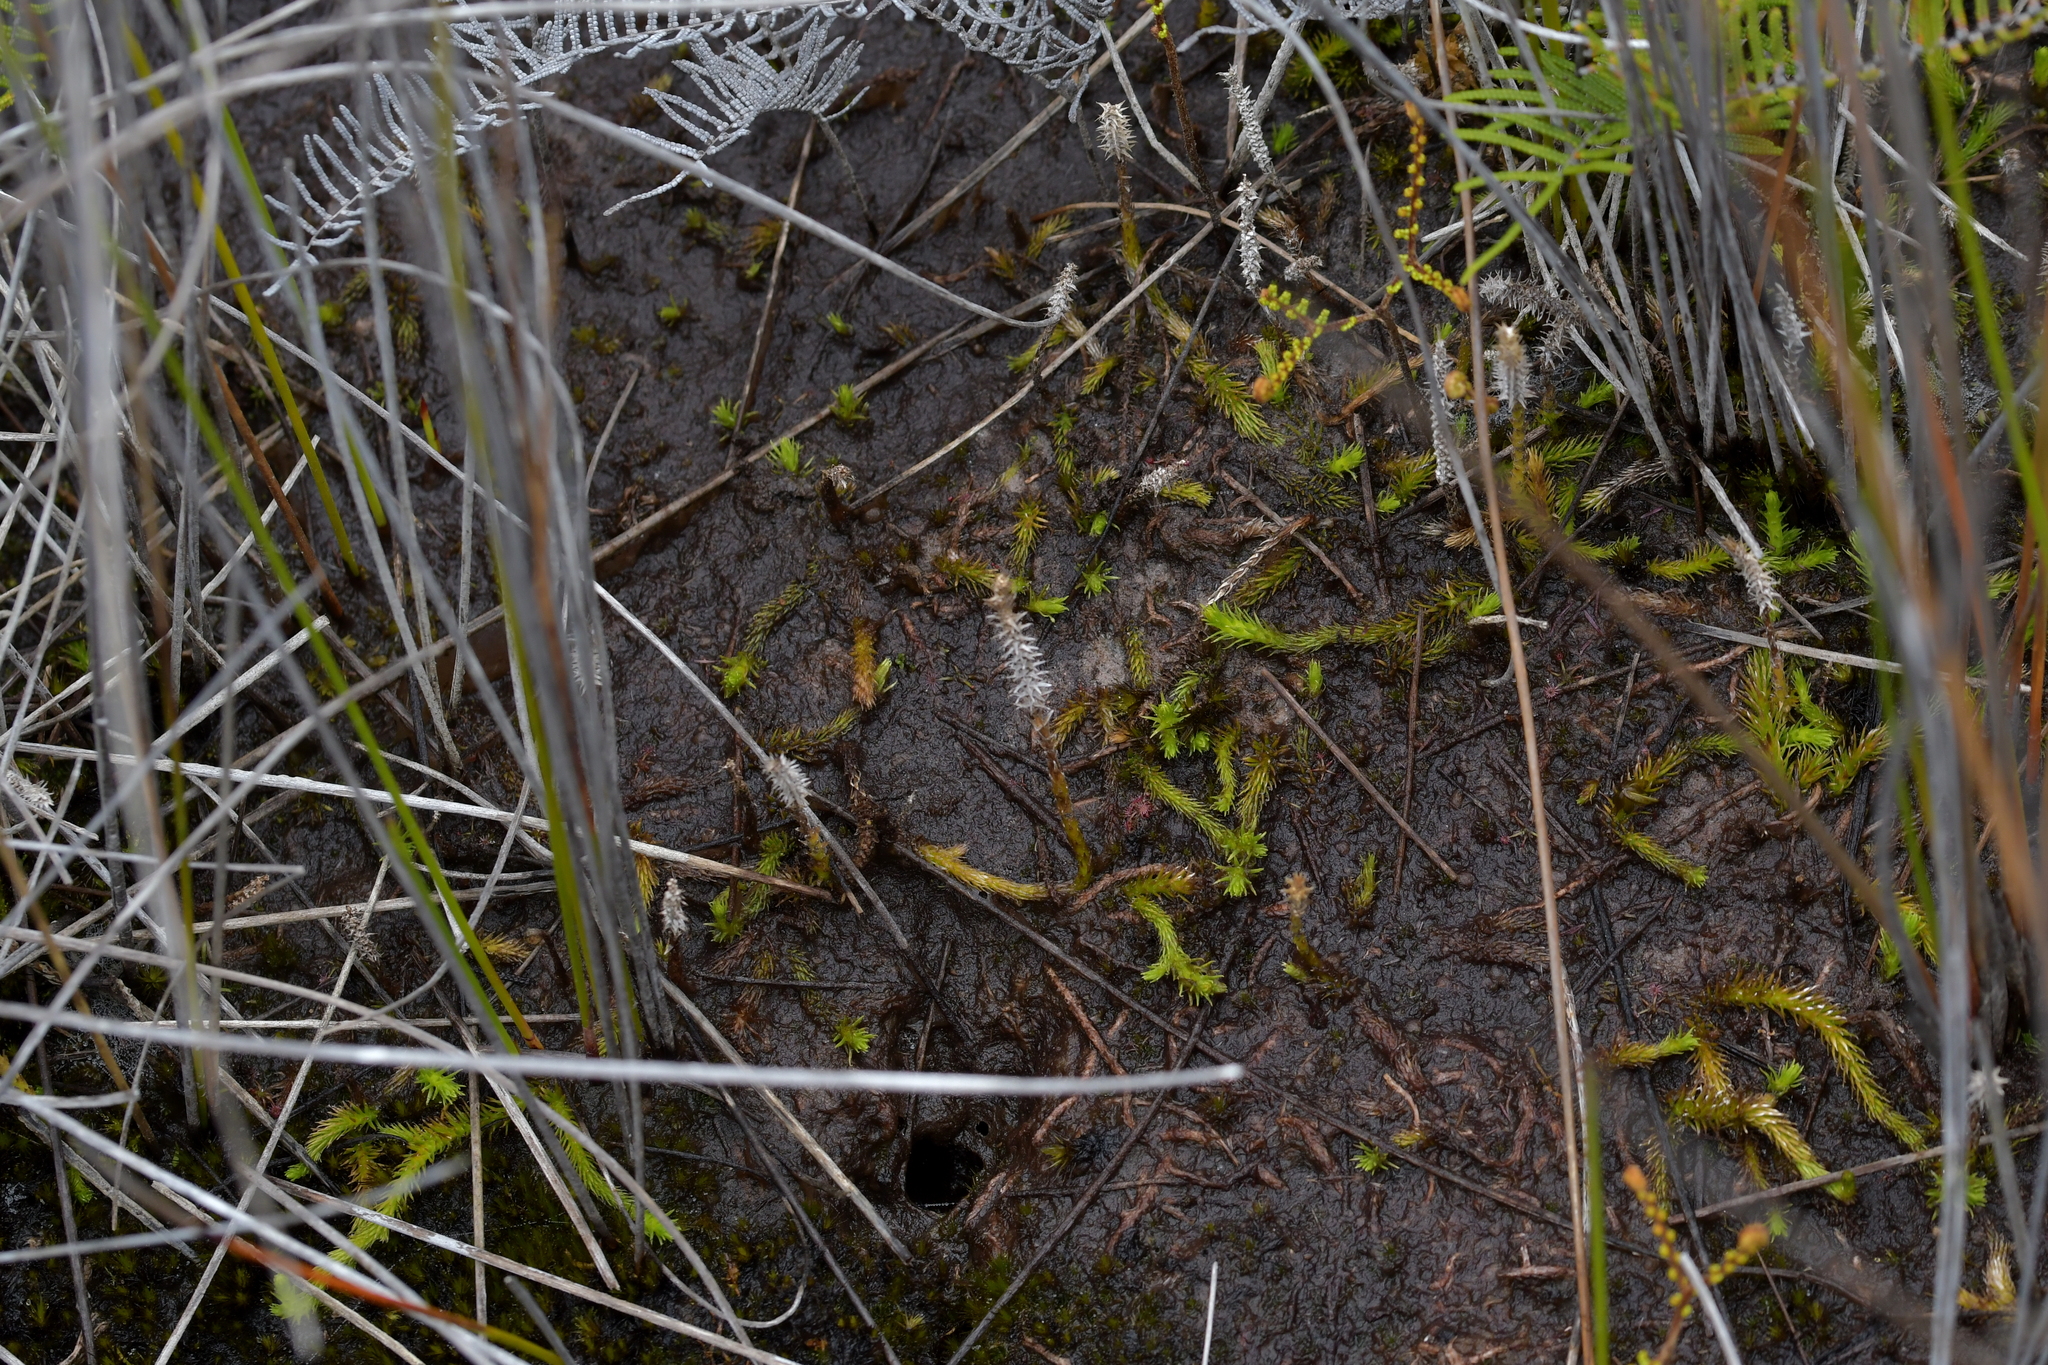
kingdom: Plantae
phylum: Tracheophyta
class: Lycopodiopsida
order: Lycopodiales
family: Lycopodiaceae
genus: Brownseya
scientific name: Brownseya serpentina
